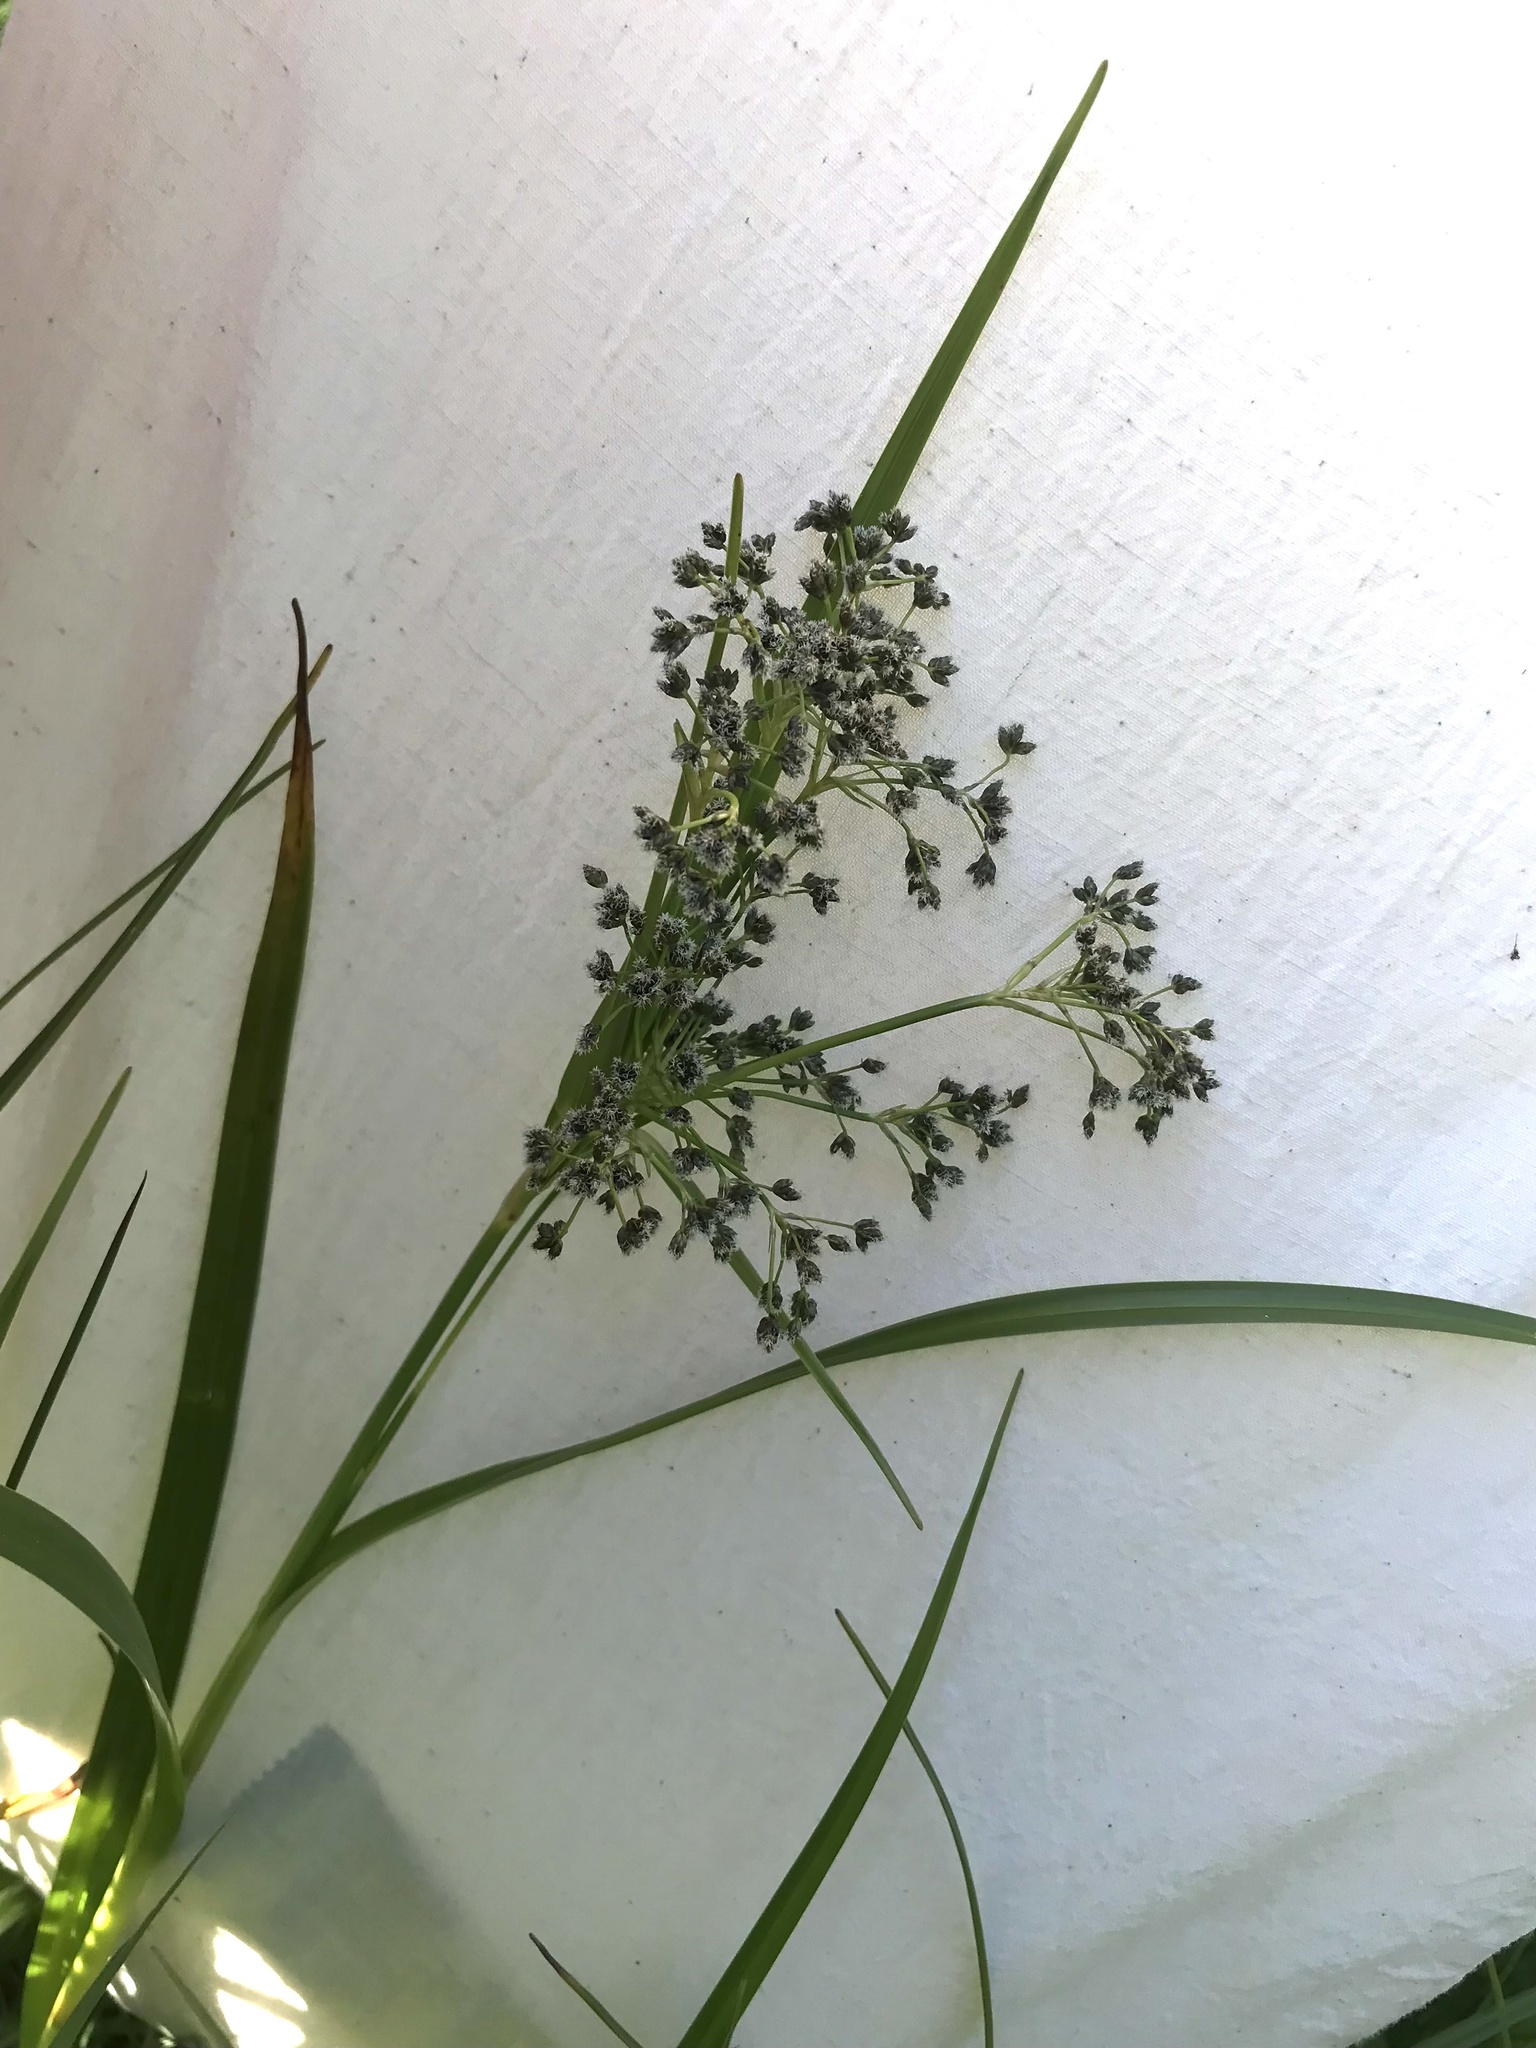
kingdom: Plantae
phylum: Tracheophyta
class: Liliopsida
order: Poales
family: Cyperaceae
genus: Scirpus
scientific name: Scirpus sylvaticus
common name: Wood club-rush
